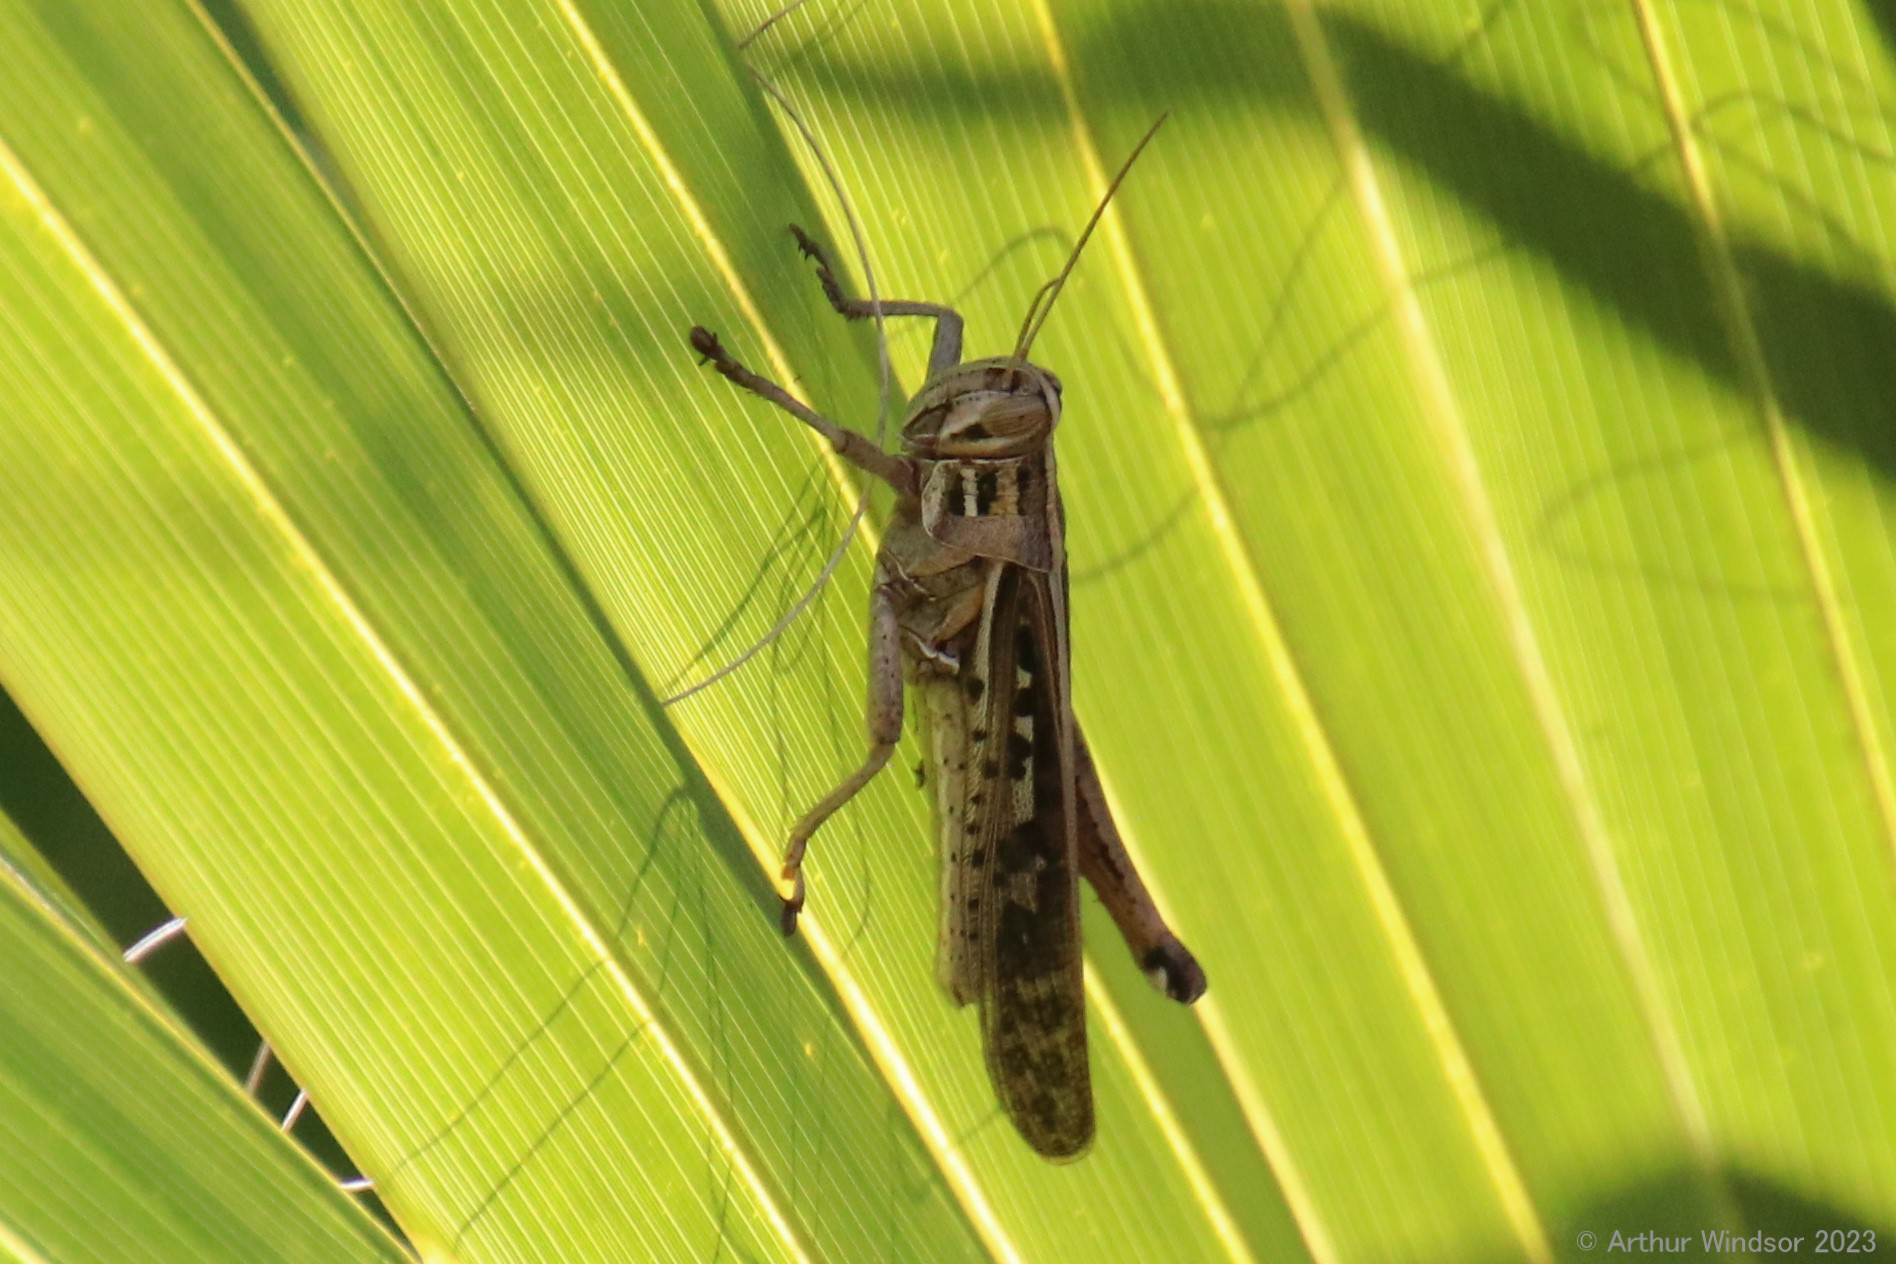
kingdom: Animalia
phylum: Arthropoda
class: Insecta
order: Orthoptera
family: Acrididae
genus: Schistocerca
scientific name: Schistocerca serialis
